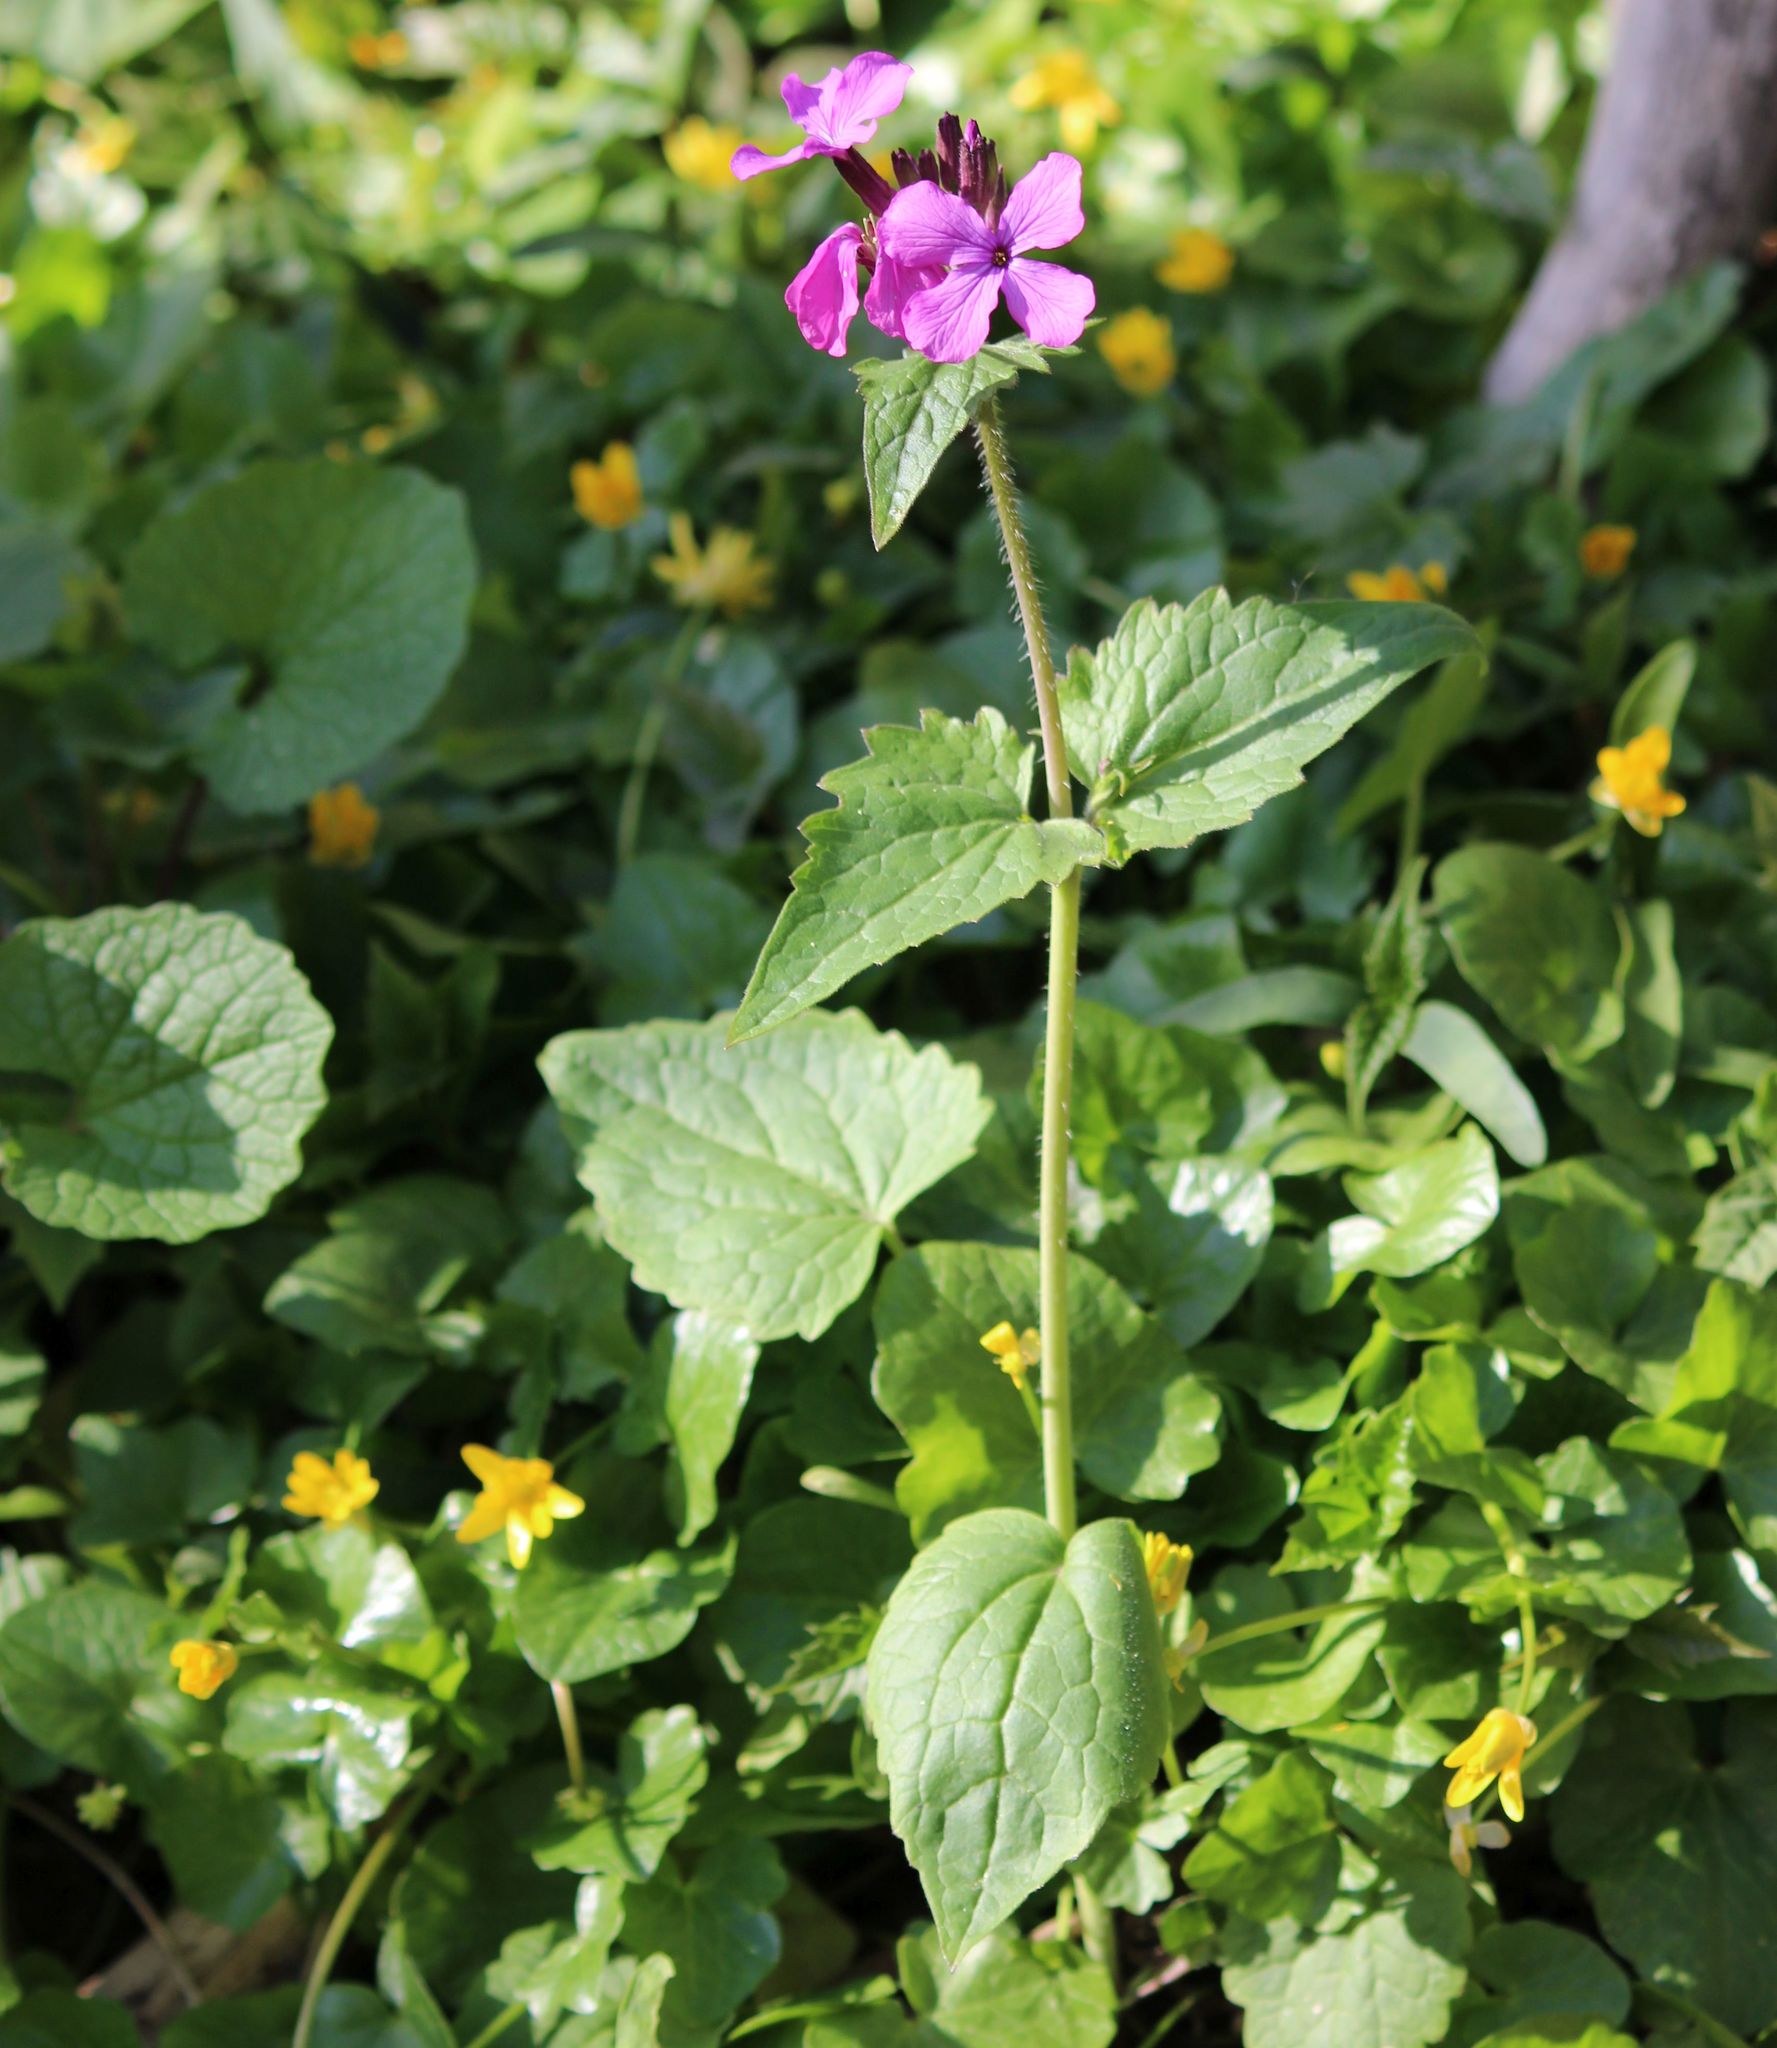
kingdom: Plantae
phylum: Tracheophyta
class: Magnoliopsida
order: Brassicales
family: Brassicaceae
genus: Lunaria
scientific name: Lunaria annua
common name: Honesty
